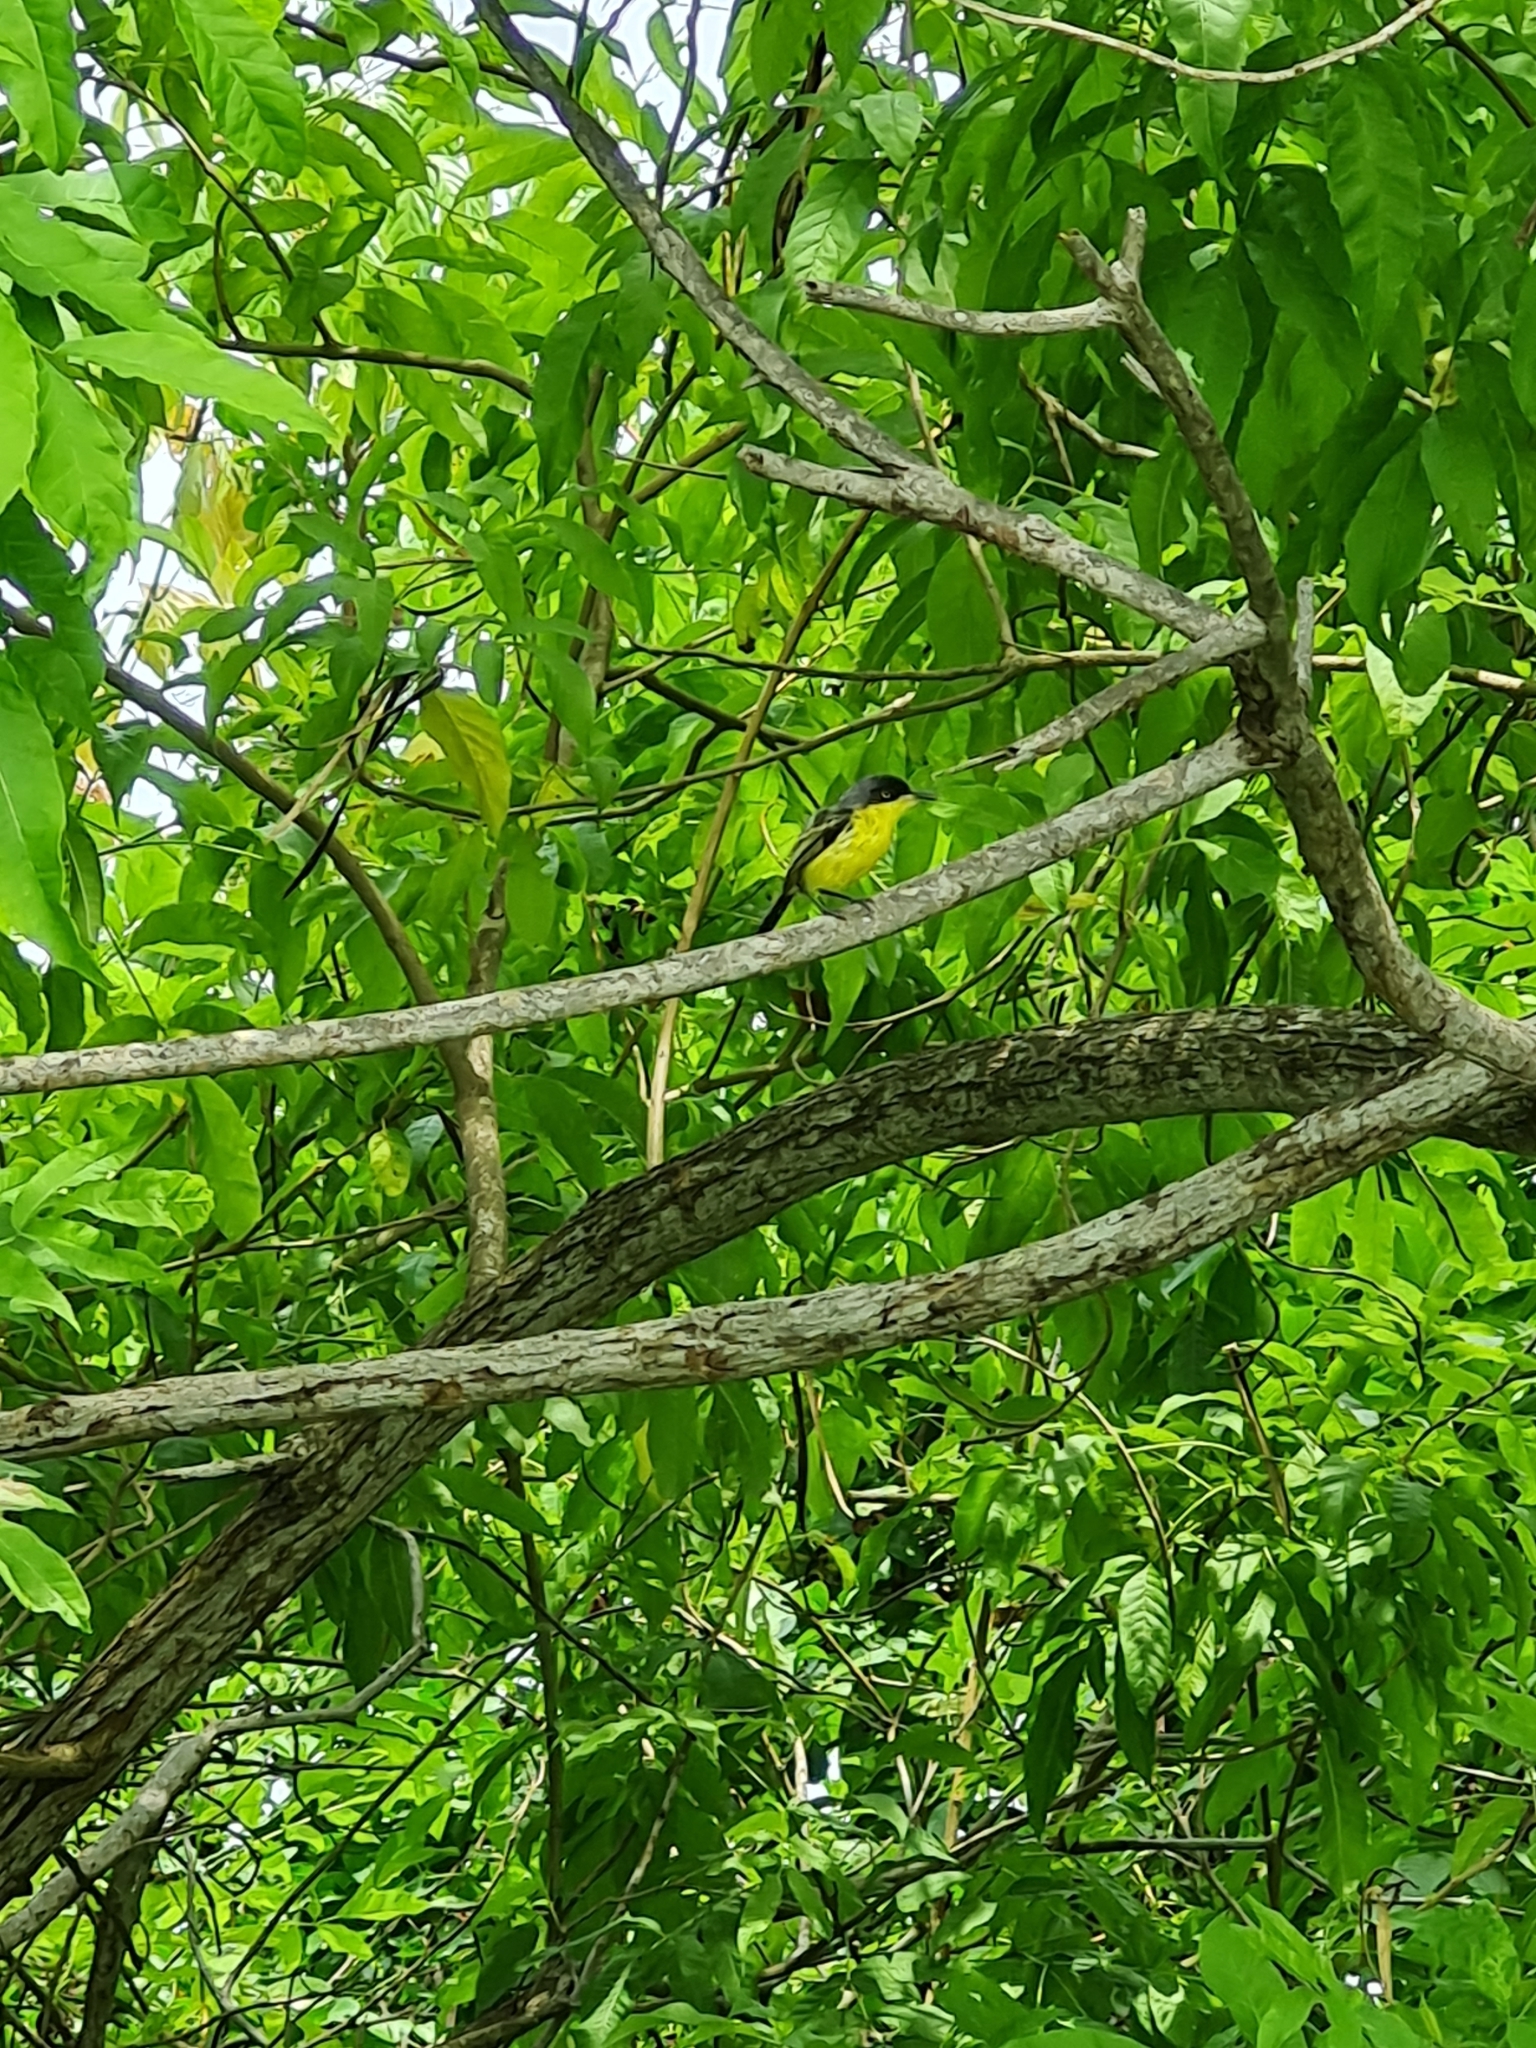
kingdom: Animalia
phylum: Chordata
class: Aves
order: Passeriformes
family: Tyrannidae
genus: Todirostrum
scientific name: Todirostrum cinereum
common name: Common tody-flycatcher
